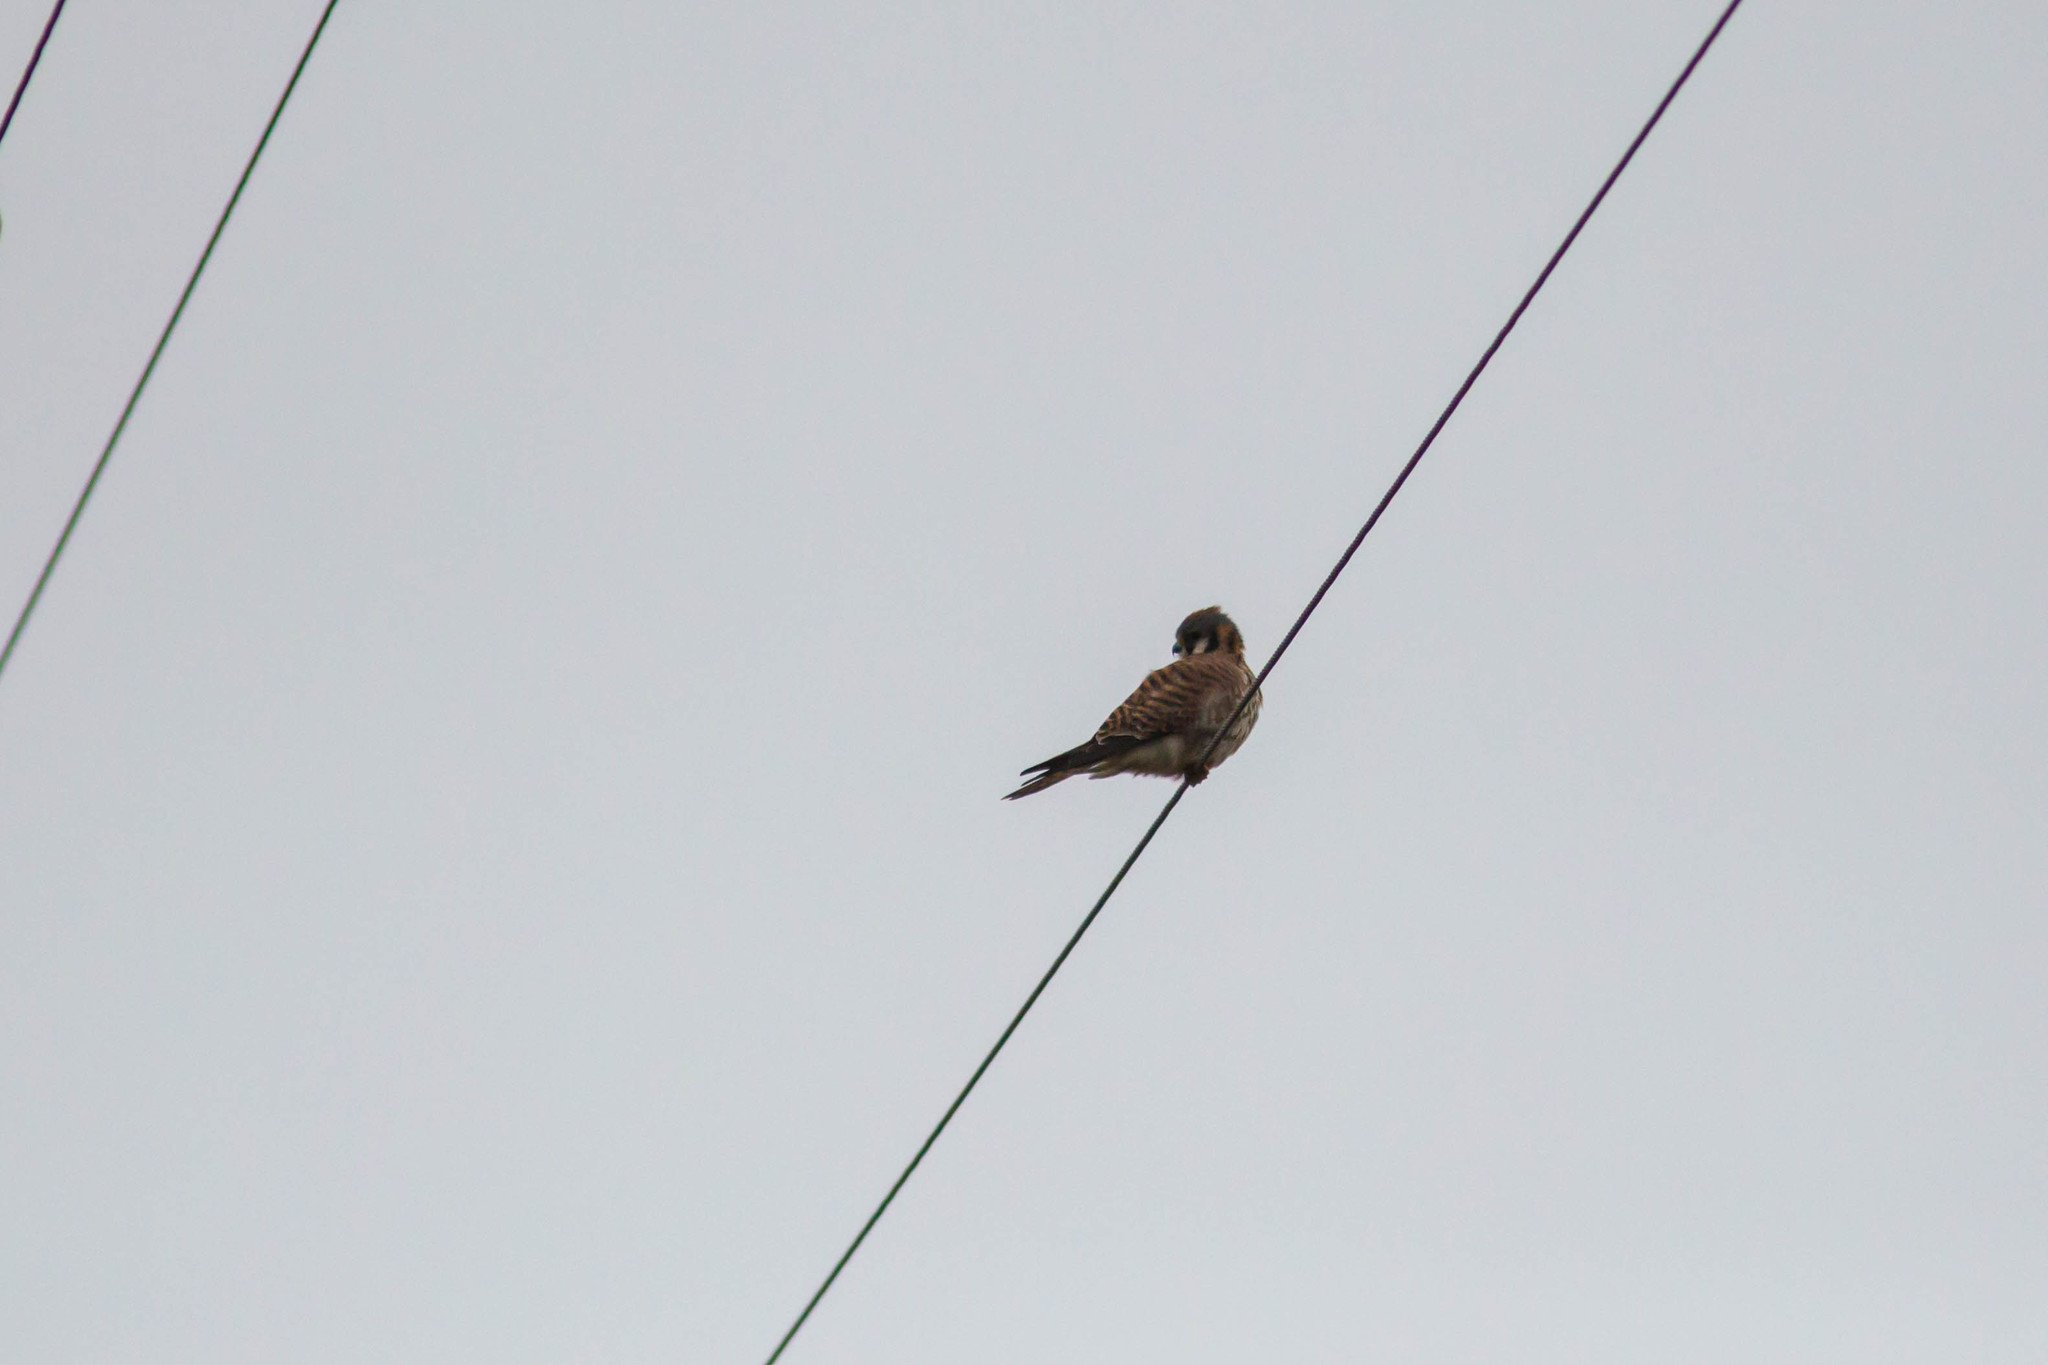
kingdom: Animalia
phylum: Chordata
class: Aves
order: Falconiformes
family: Falconidae
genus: Falco
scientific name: Falco sparverius
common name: American kestrel
